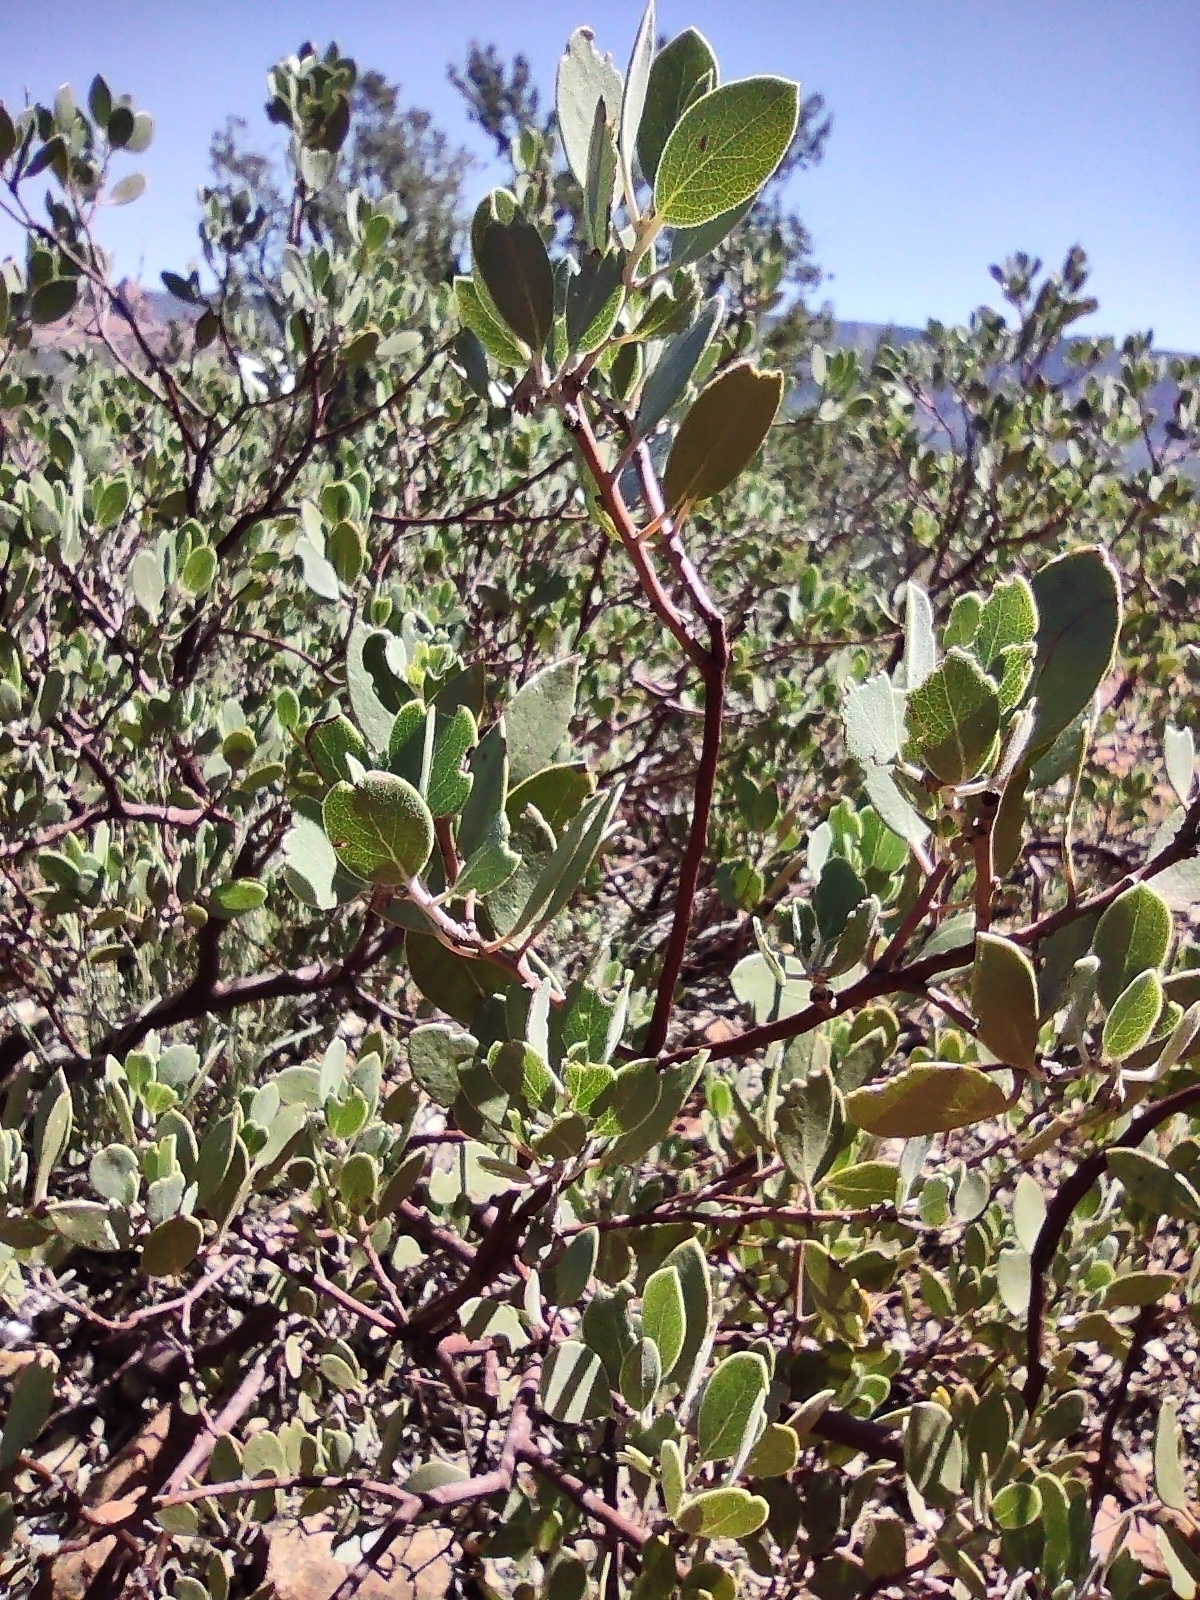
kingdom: Plantae
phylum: Tracheophyta
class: Magnoliopsida
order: Ericales
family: Ericaceae
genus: Arctostaphylos
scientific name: Arctostaphylos pungens
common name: Mexican manzanita
